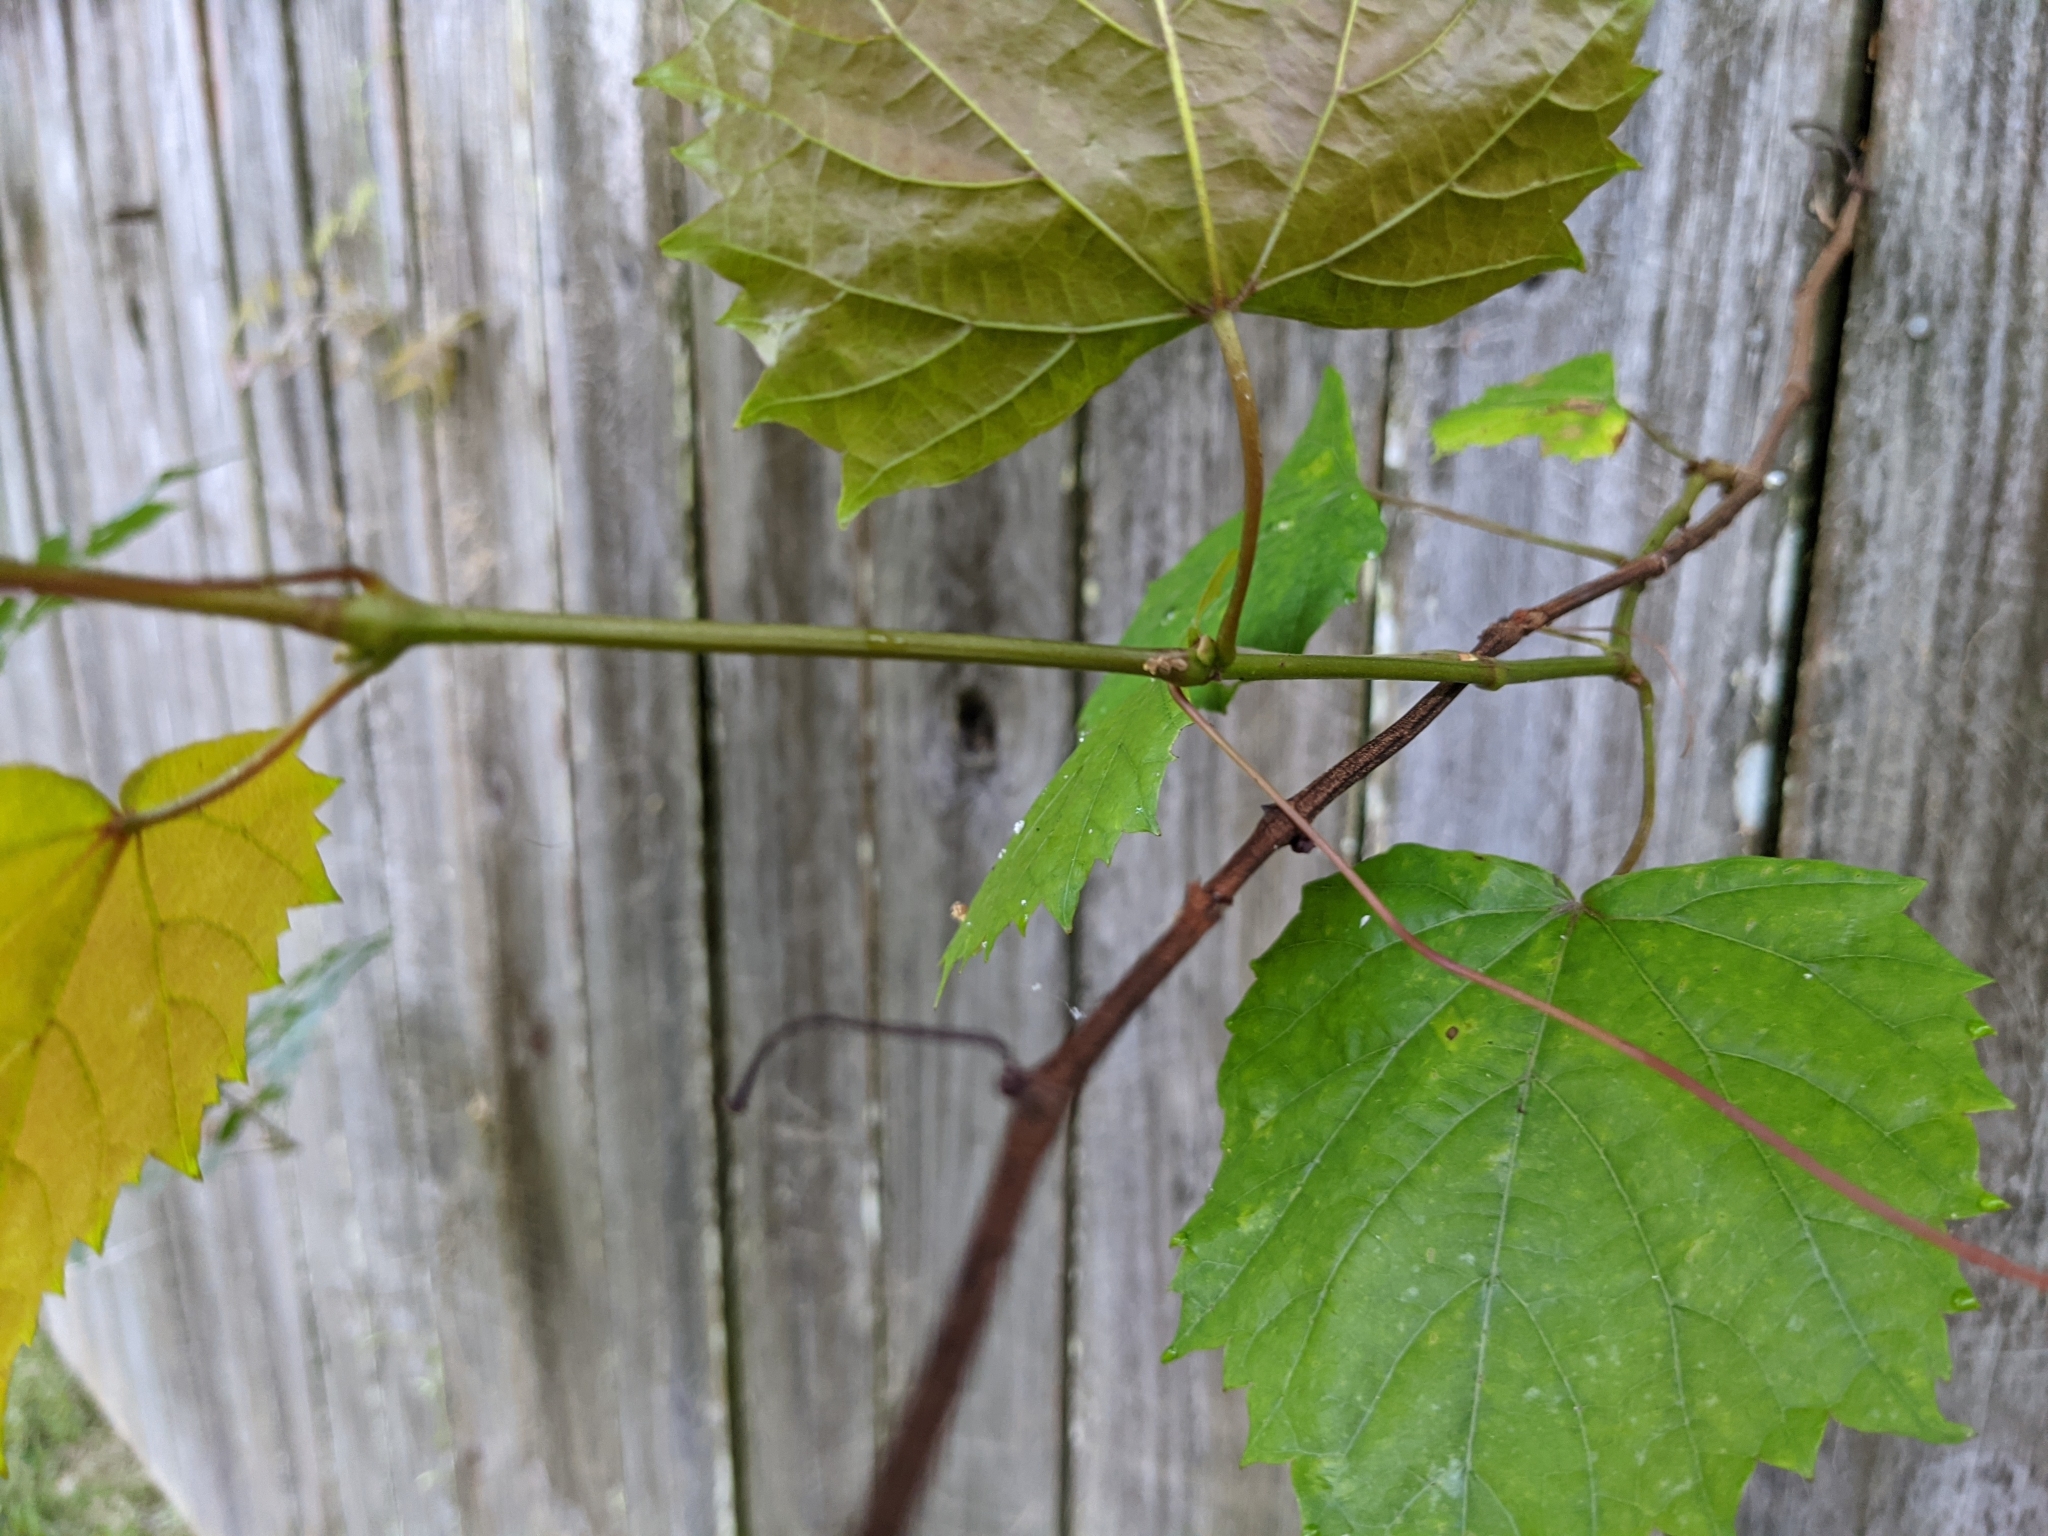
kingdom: Plantae
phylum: Tracheophyta
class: Magnoliopsida
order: Vitales
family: Vitaceae
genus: Vitis
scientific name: Vitis rotundifolia
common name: Muscadine grape
